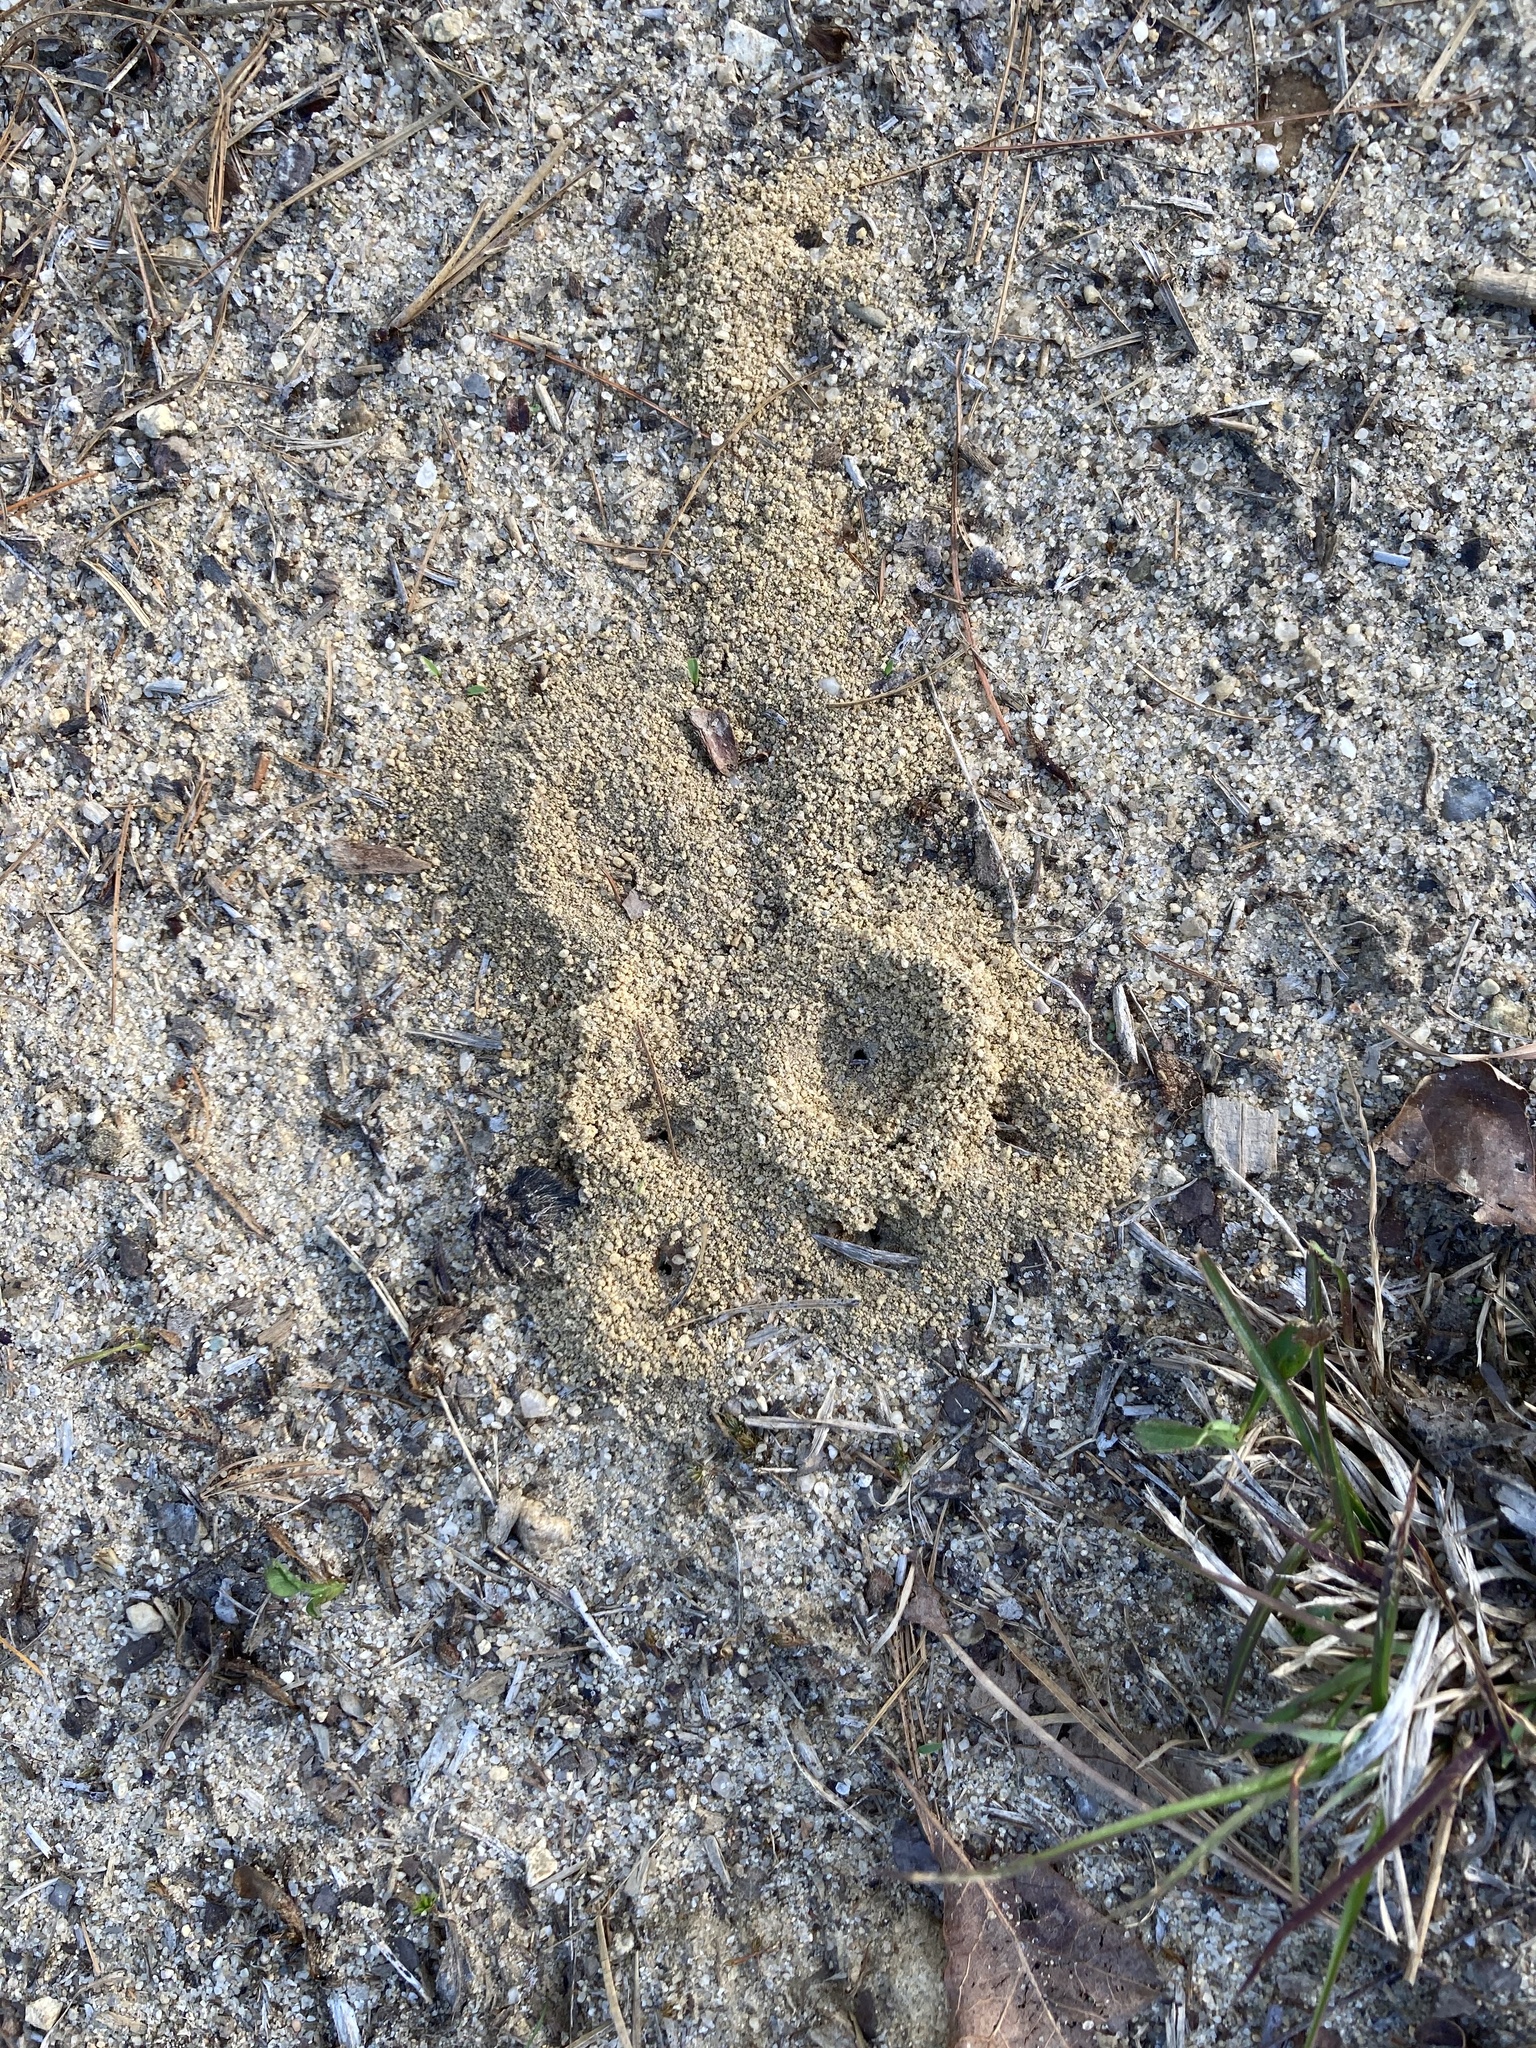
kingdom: Animalia
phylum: Arthropoda
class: Insecta
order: Hymenoptera
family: Formicidae
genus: Pheidole
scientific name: Pheidole pilifera
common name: Hairy big-headed ant
